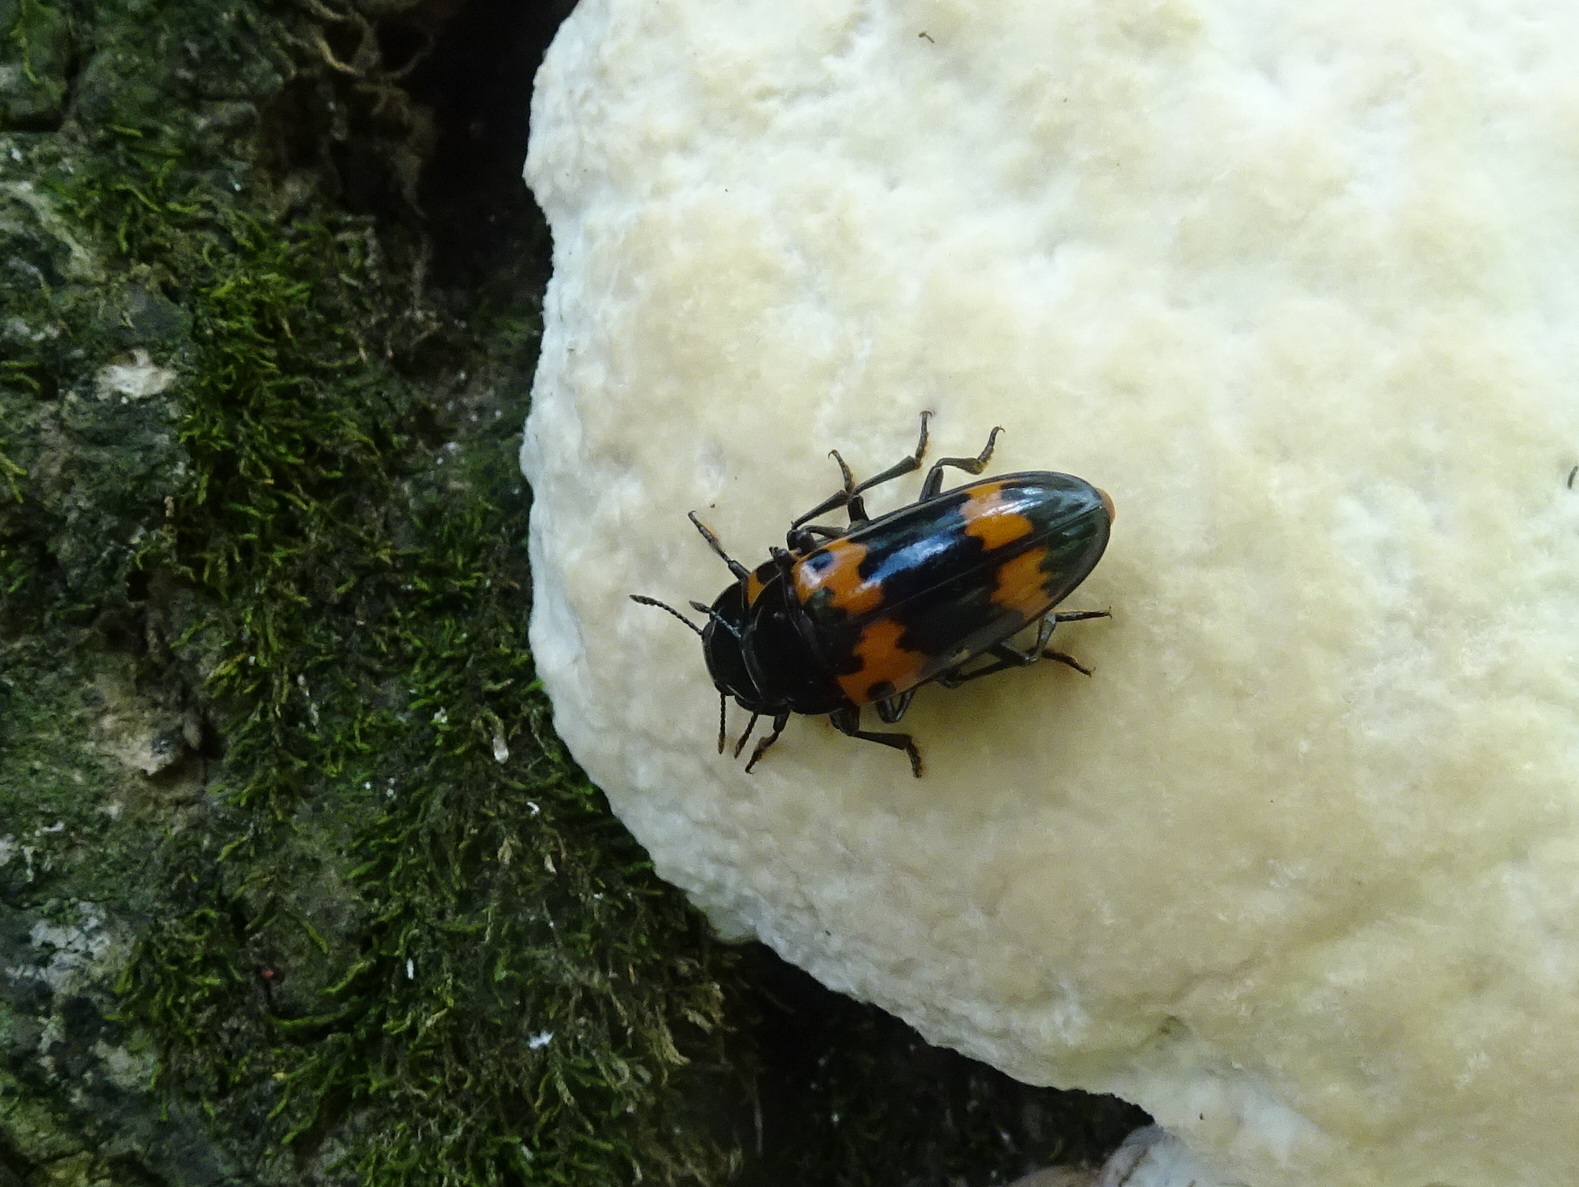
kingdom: Animalia
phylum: Arthropoda
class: Insecta
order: Coleoptera
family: Erotylidae
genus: Megalodacne
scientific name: Megalodacne fasciata
